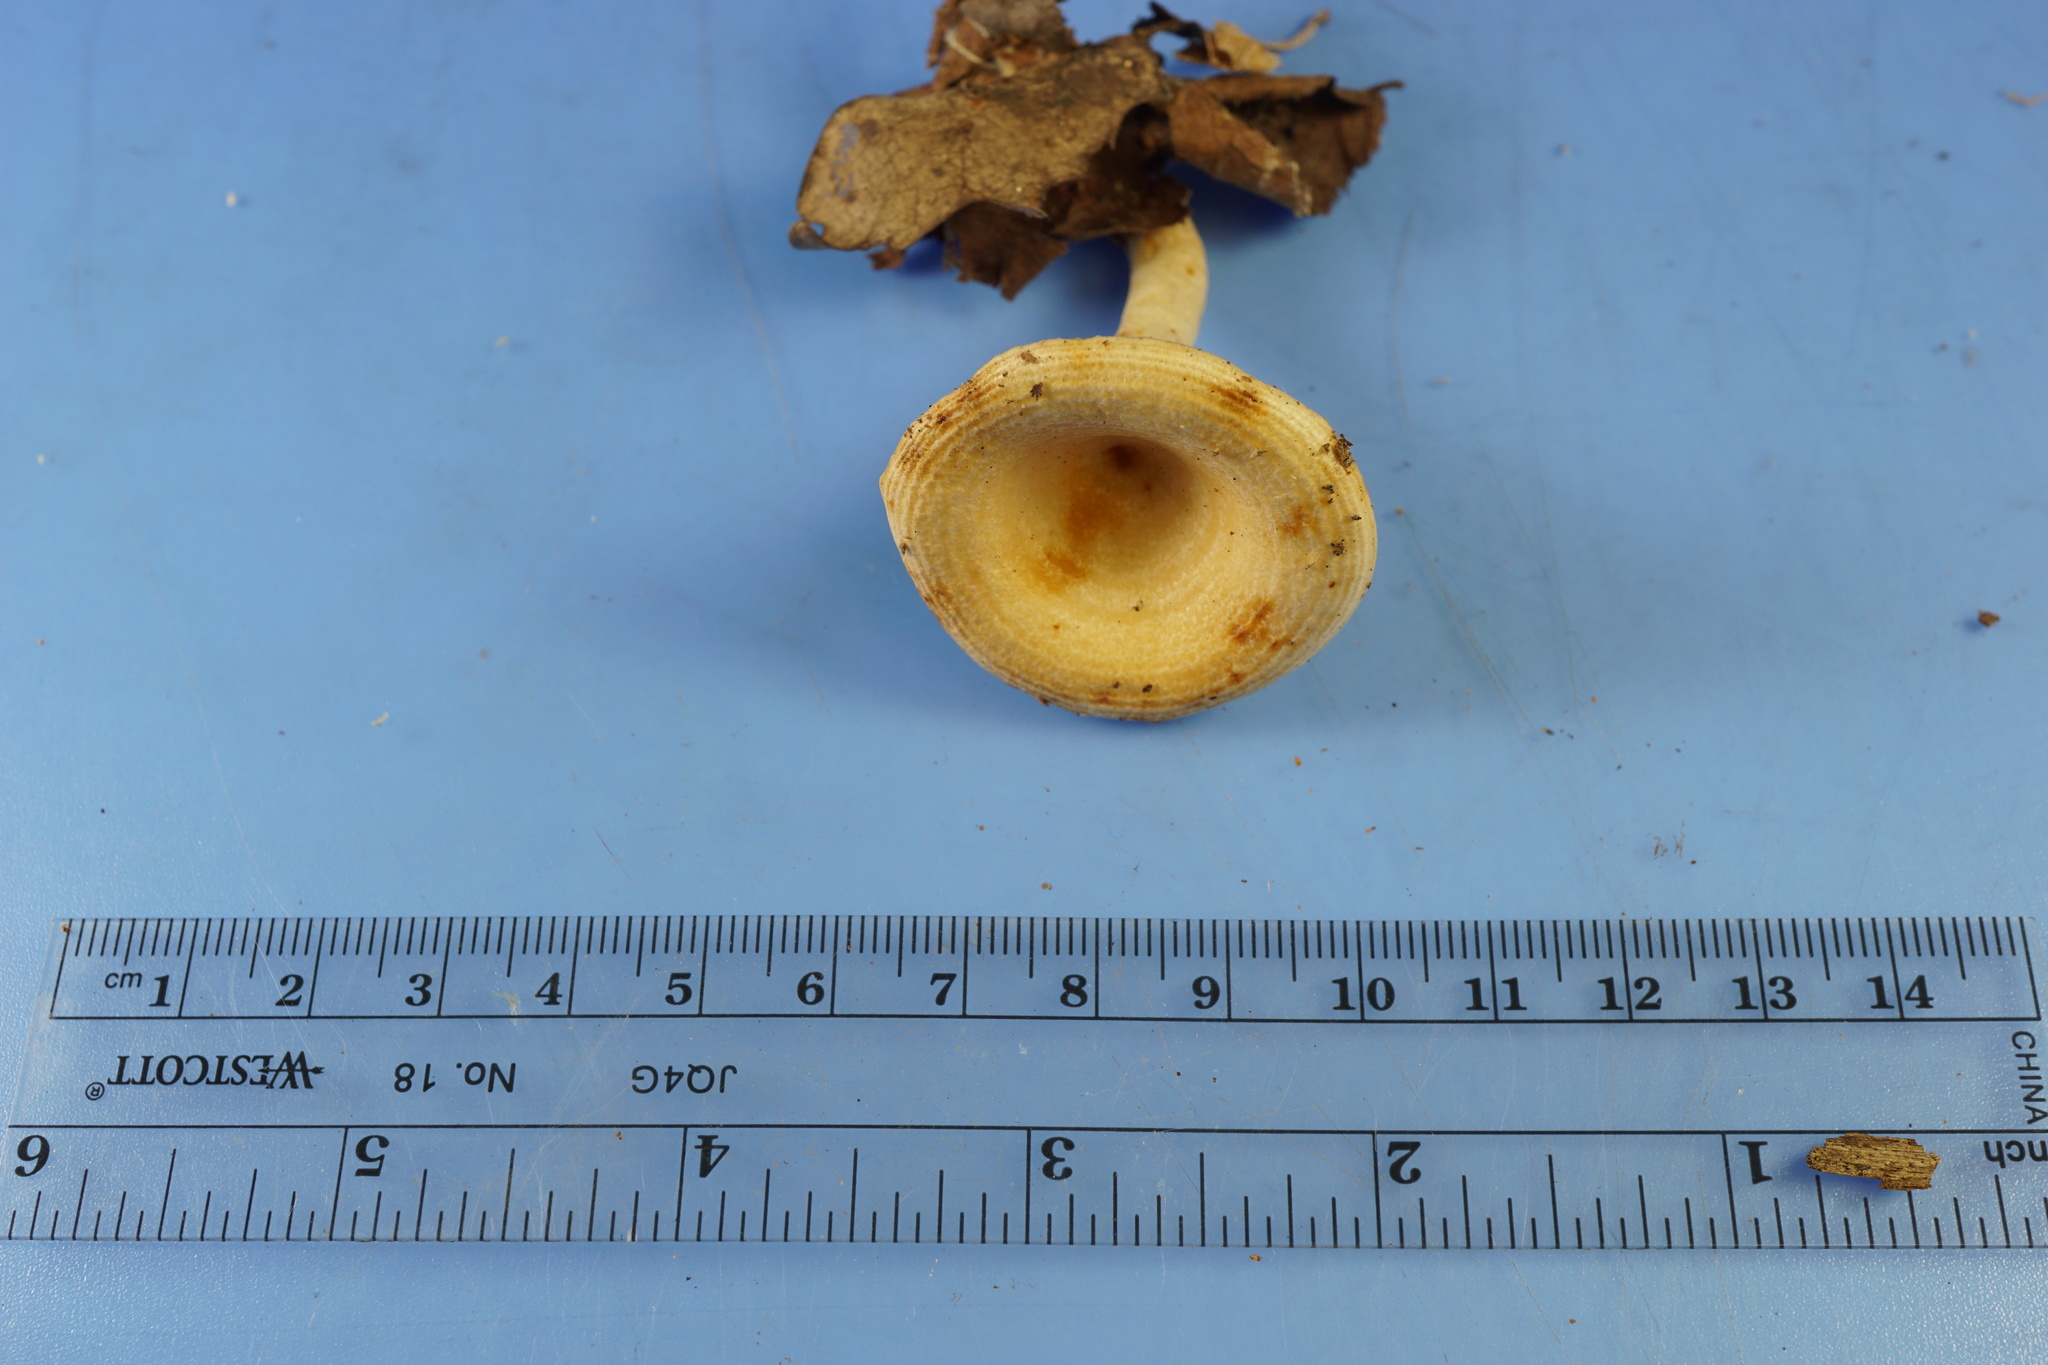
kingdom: Fungi
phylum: Basidiomycota
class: Agaricomycetes
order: Russulales
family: Russulaceae
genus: Lactarius
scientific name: Lactarius chrysorrheus
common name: Yellowdrop milkcap
